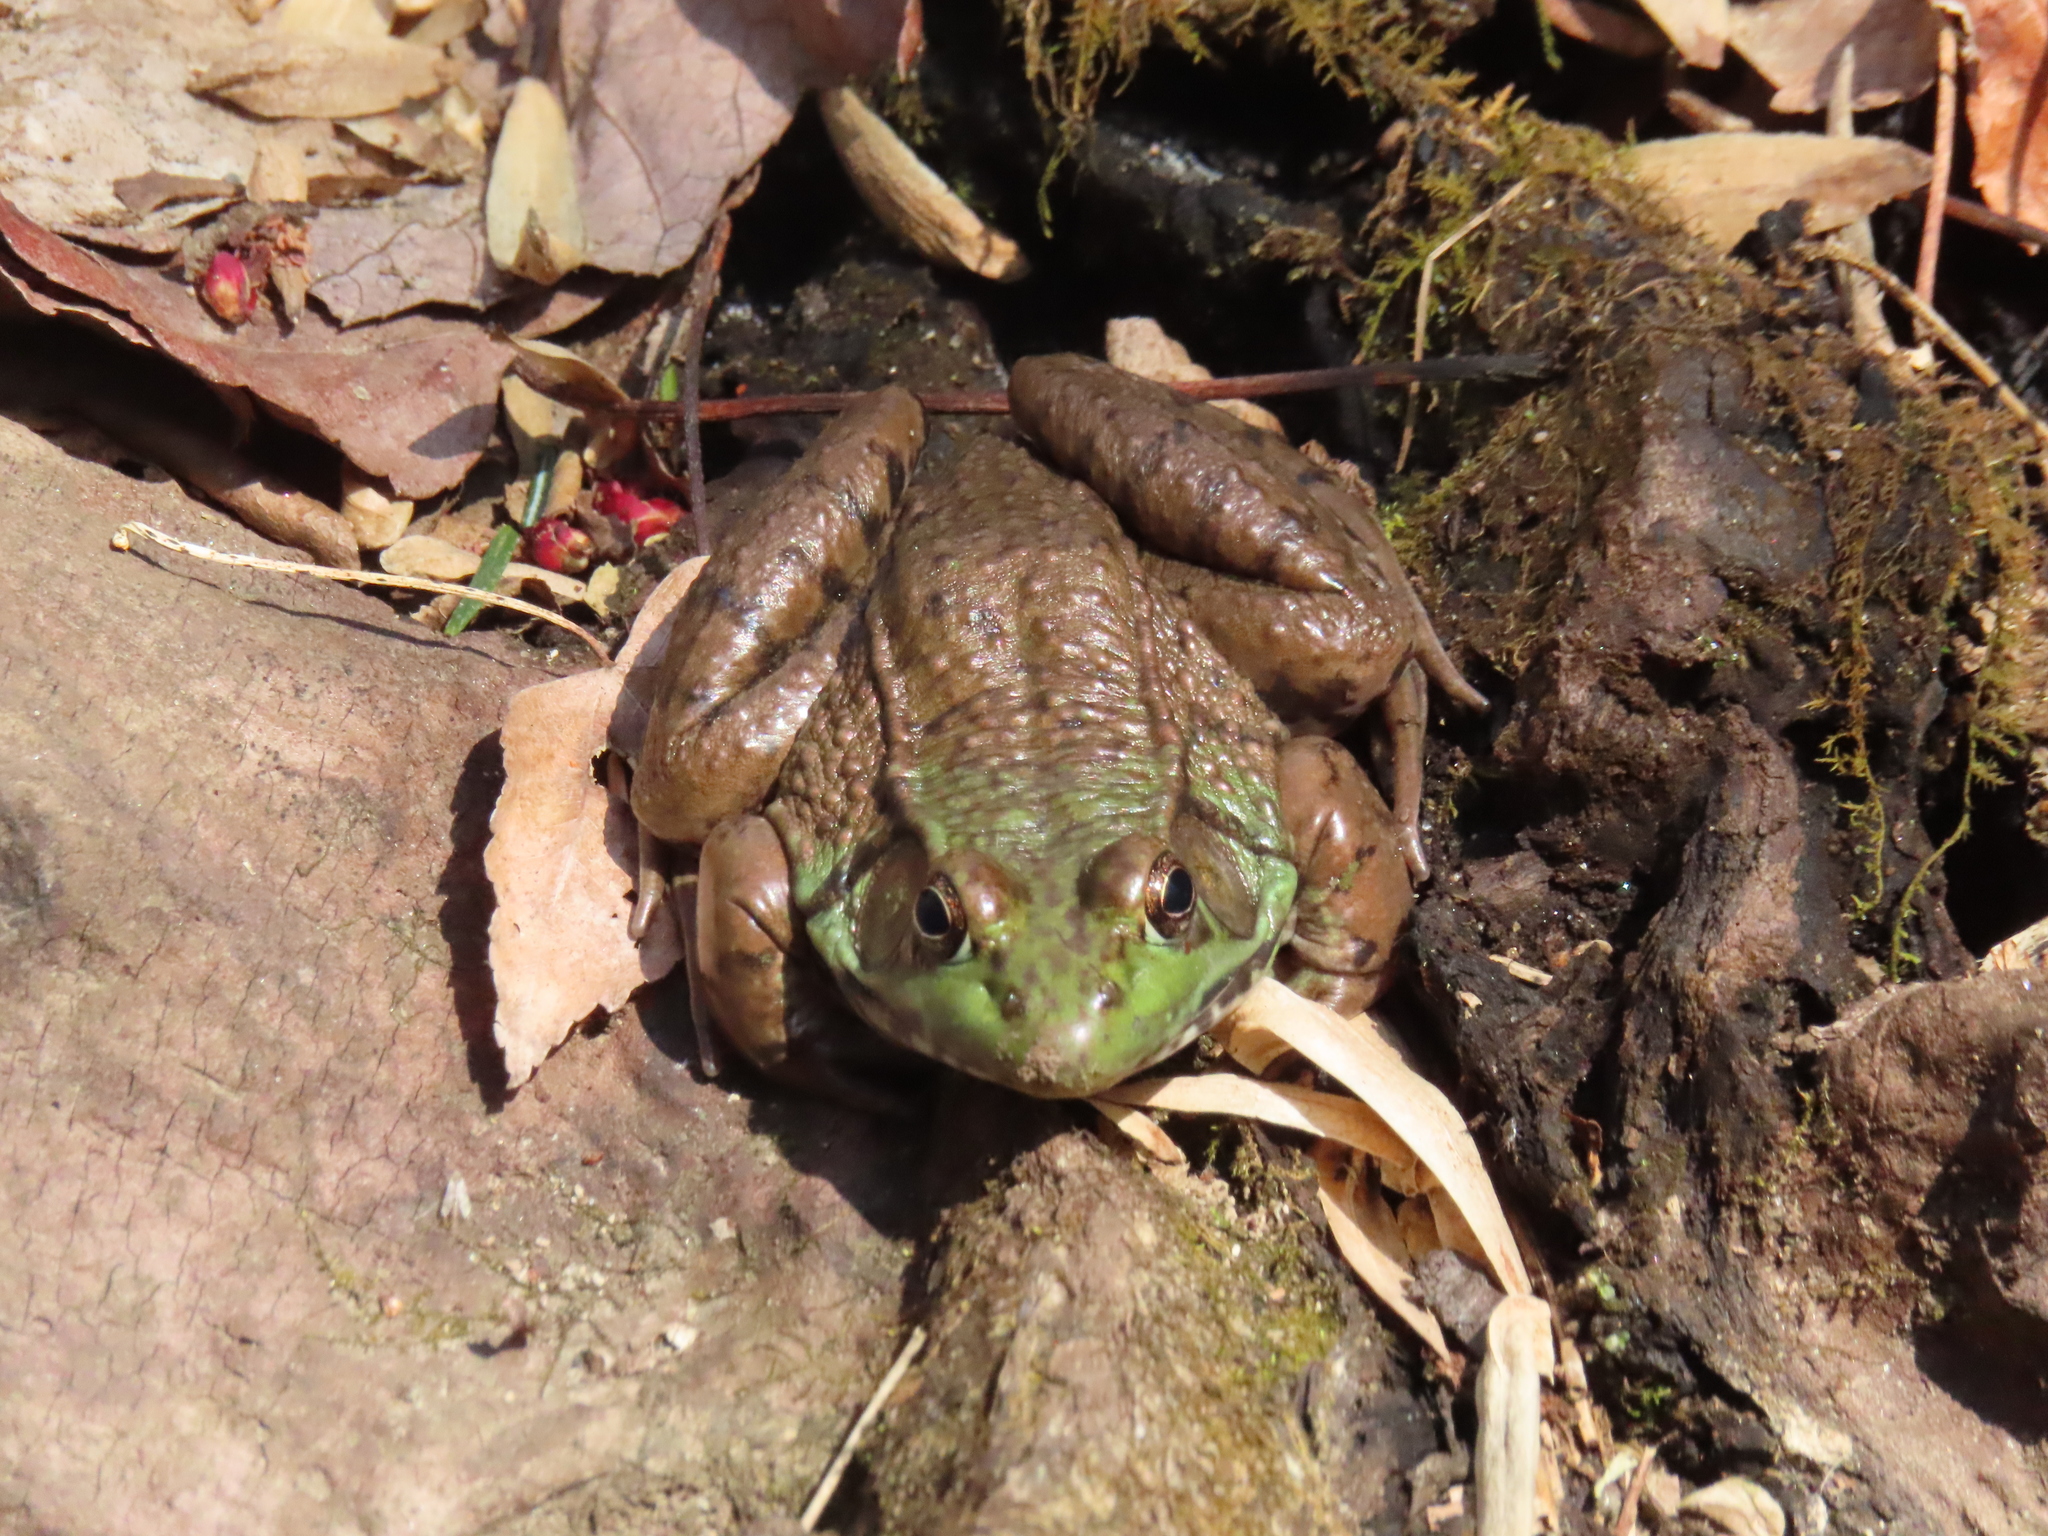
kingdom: Animalia
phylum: Chordata
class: Amphibia
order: Anura
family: Ranidae
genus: Lithobates
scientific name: Lithobates clamitans
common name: Green frog
